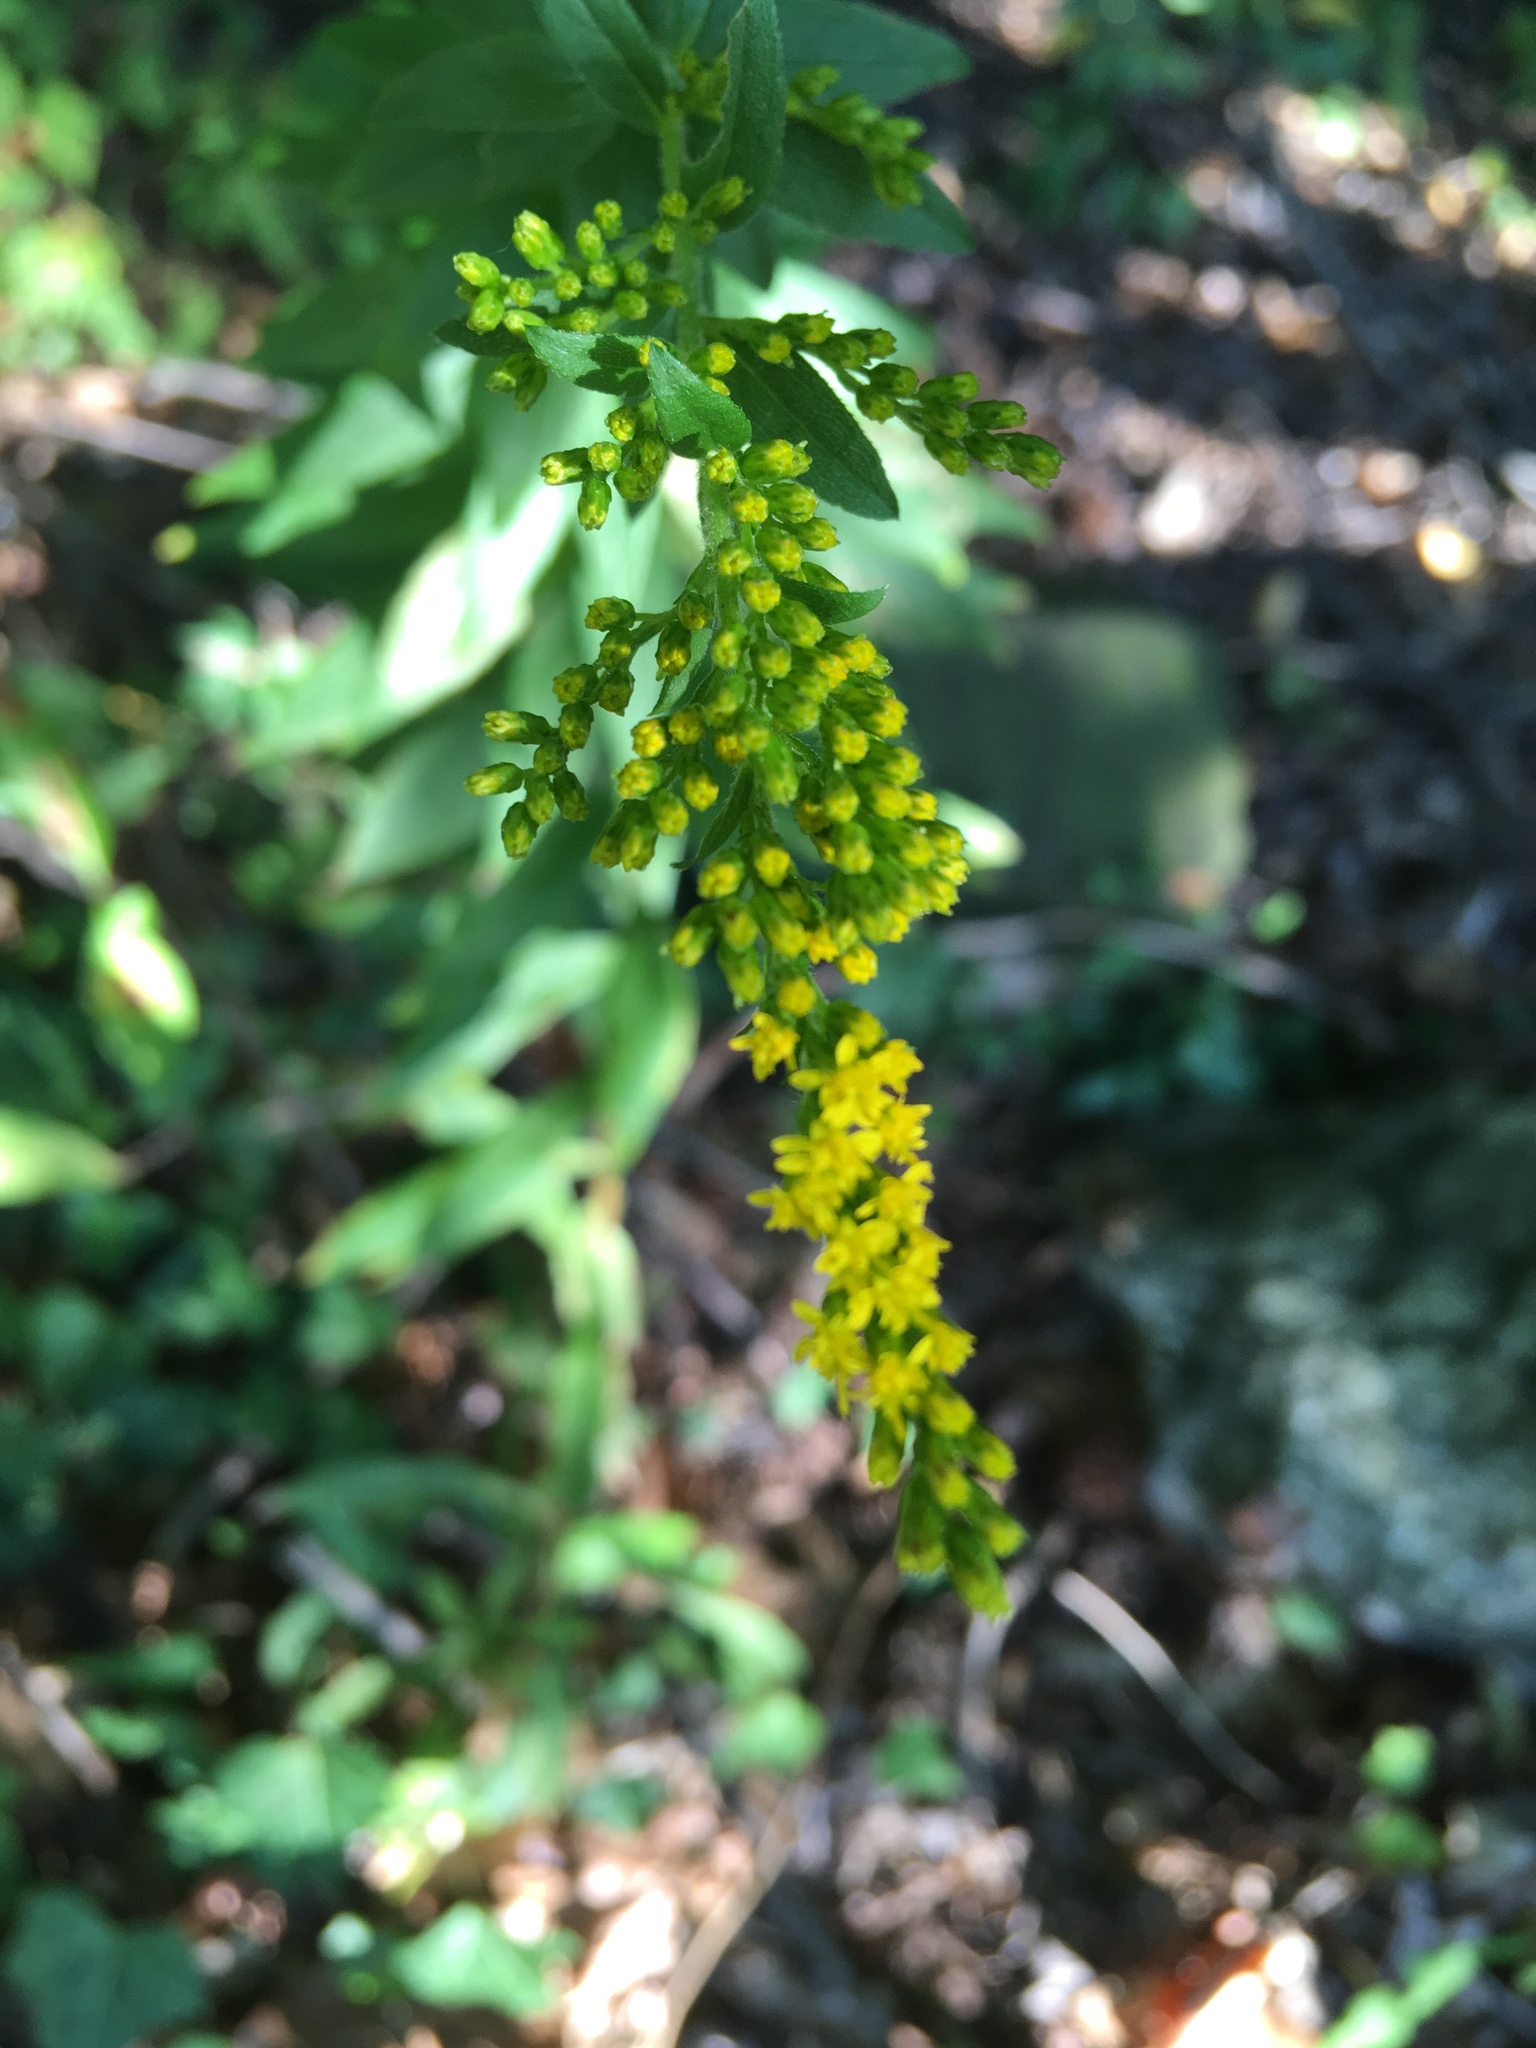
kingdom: Plantae
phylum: Tracheophyta
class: Magnoliopsida
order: Asterales
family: Asteraceae
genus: Solidago
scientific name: Solidago rugosa
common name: Rough-stemmed goldenrod
